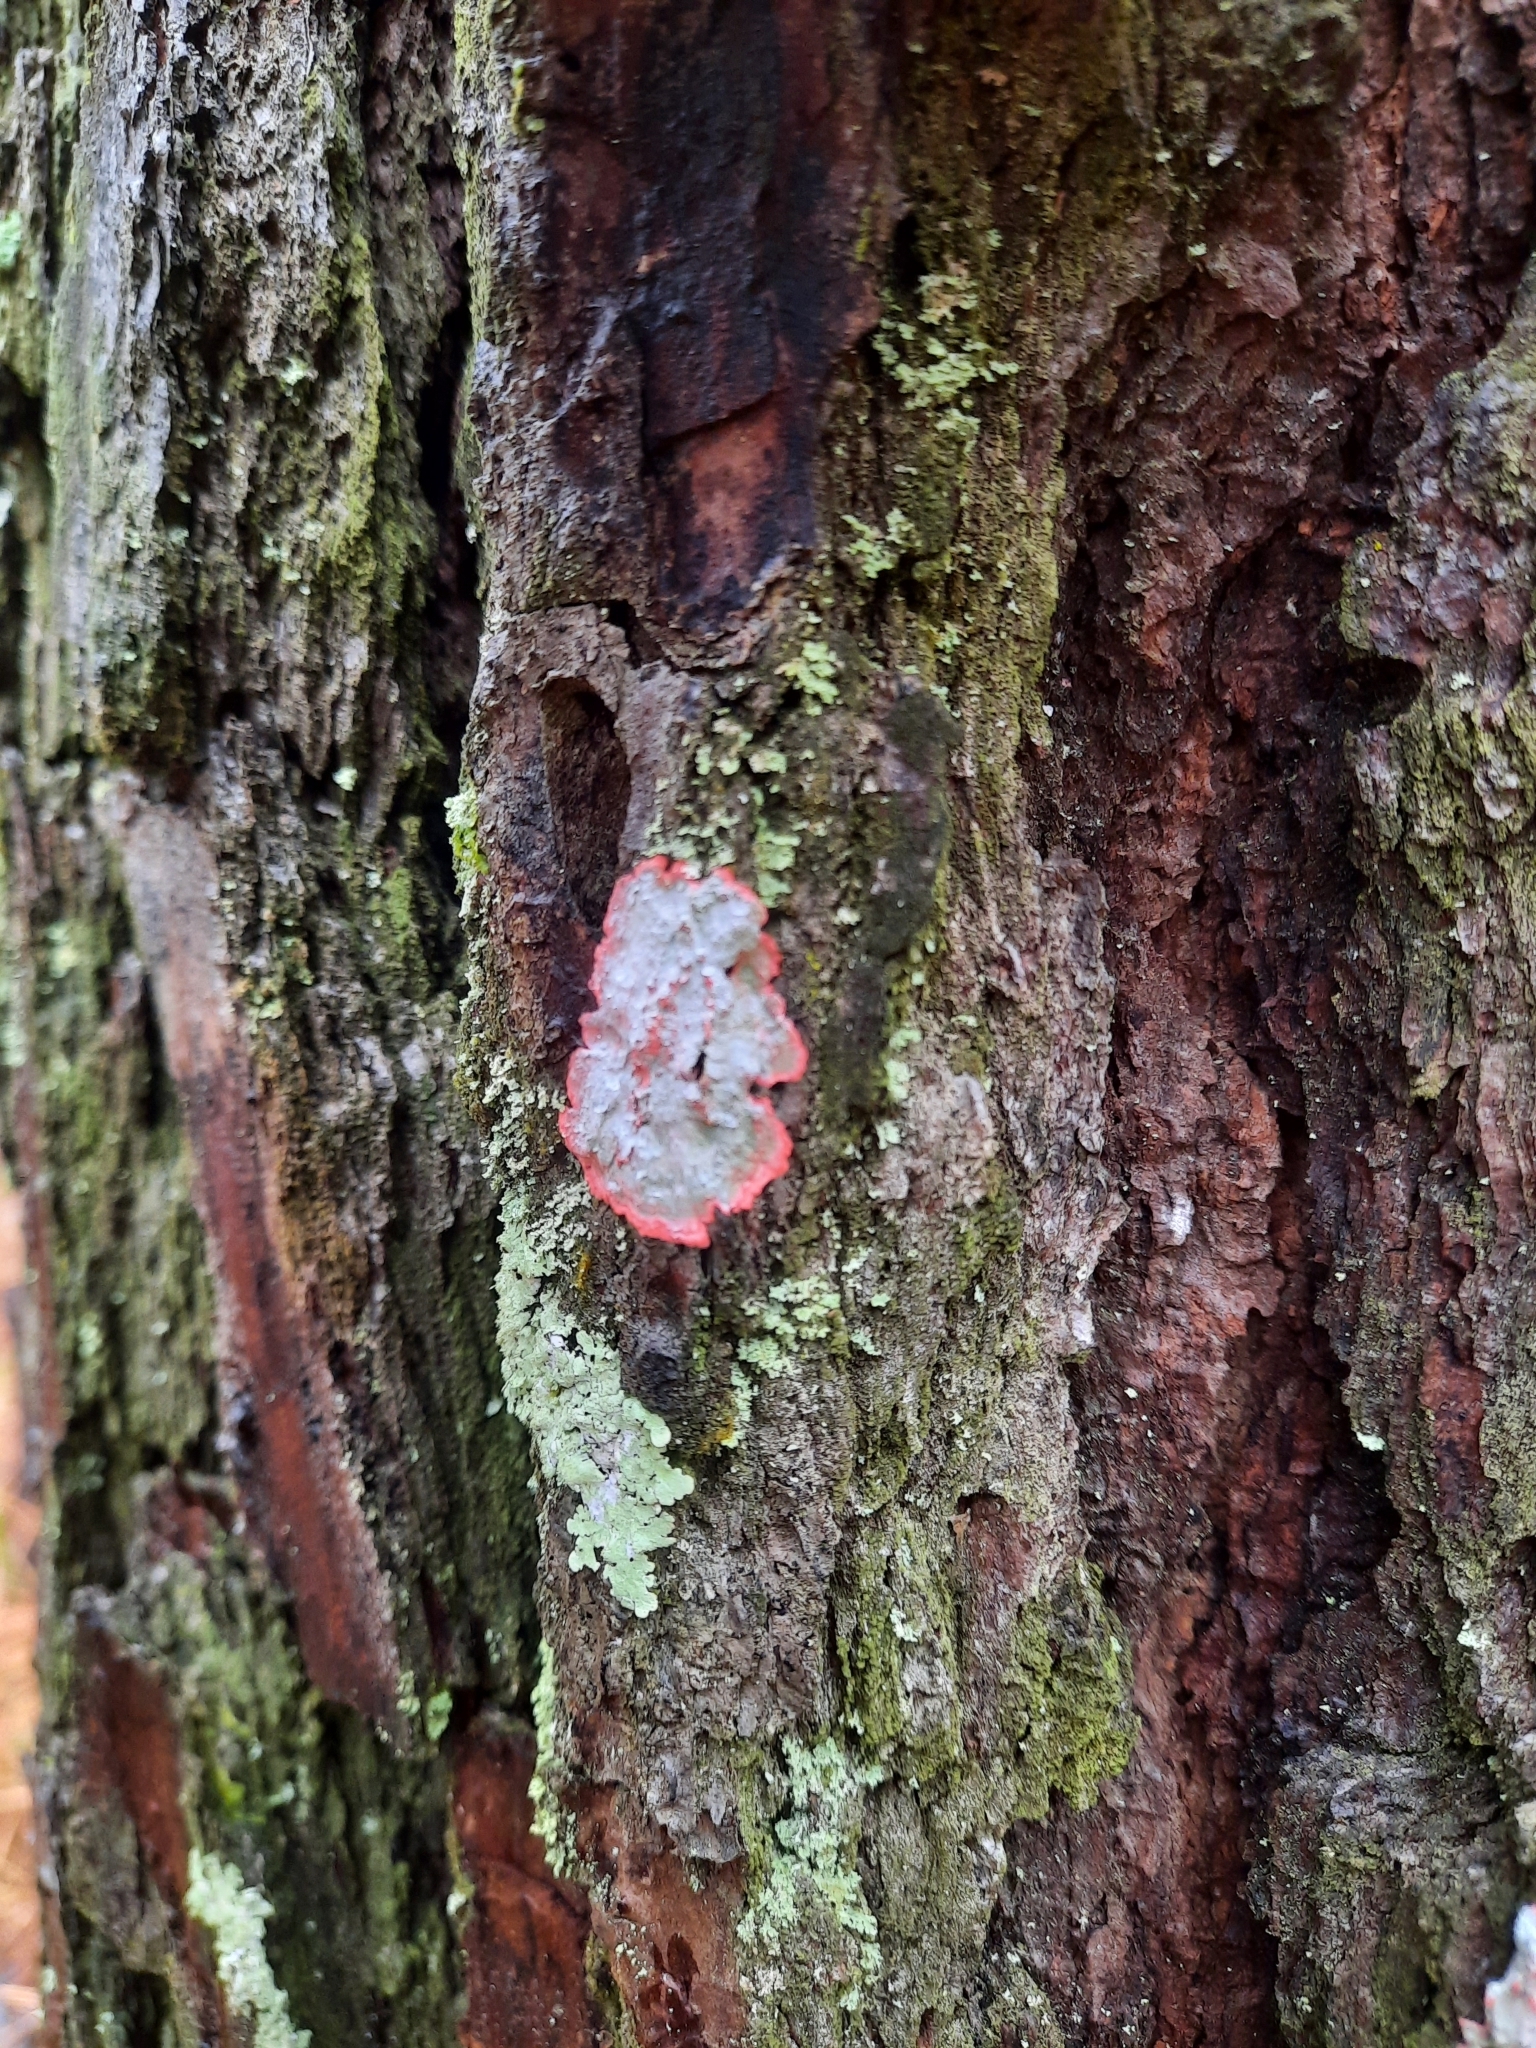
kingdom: Fungi
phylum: Ascomycota
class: Arthoniomycetes
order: Arthoniales
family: Arthoniaceae
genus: Herpothallon
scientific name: Herpothallon rubrocinctum
